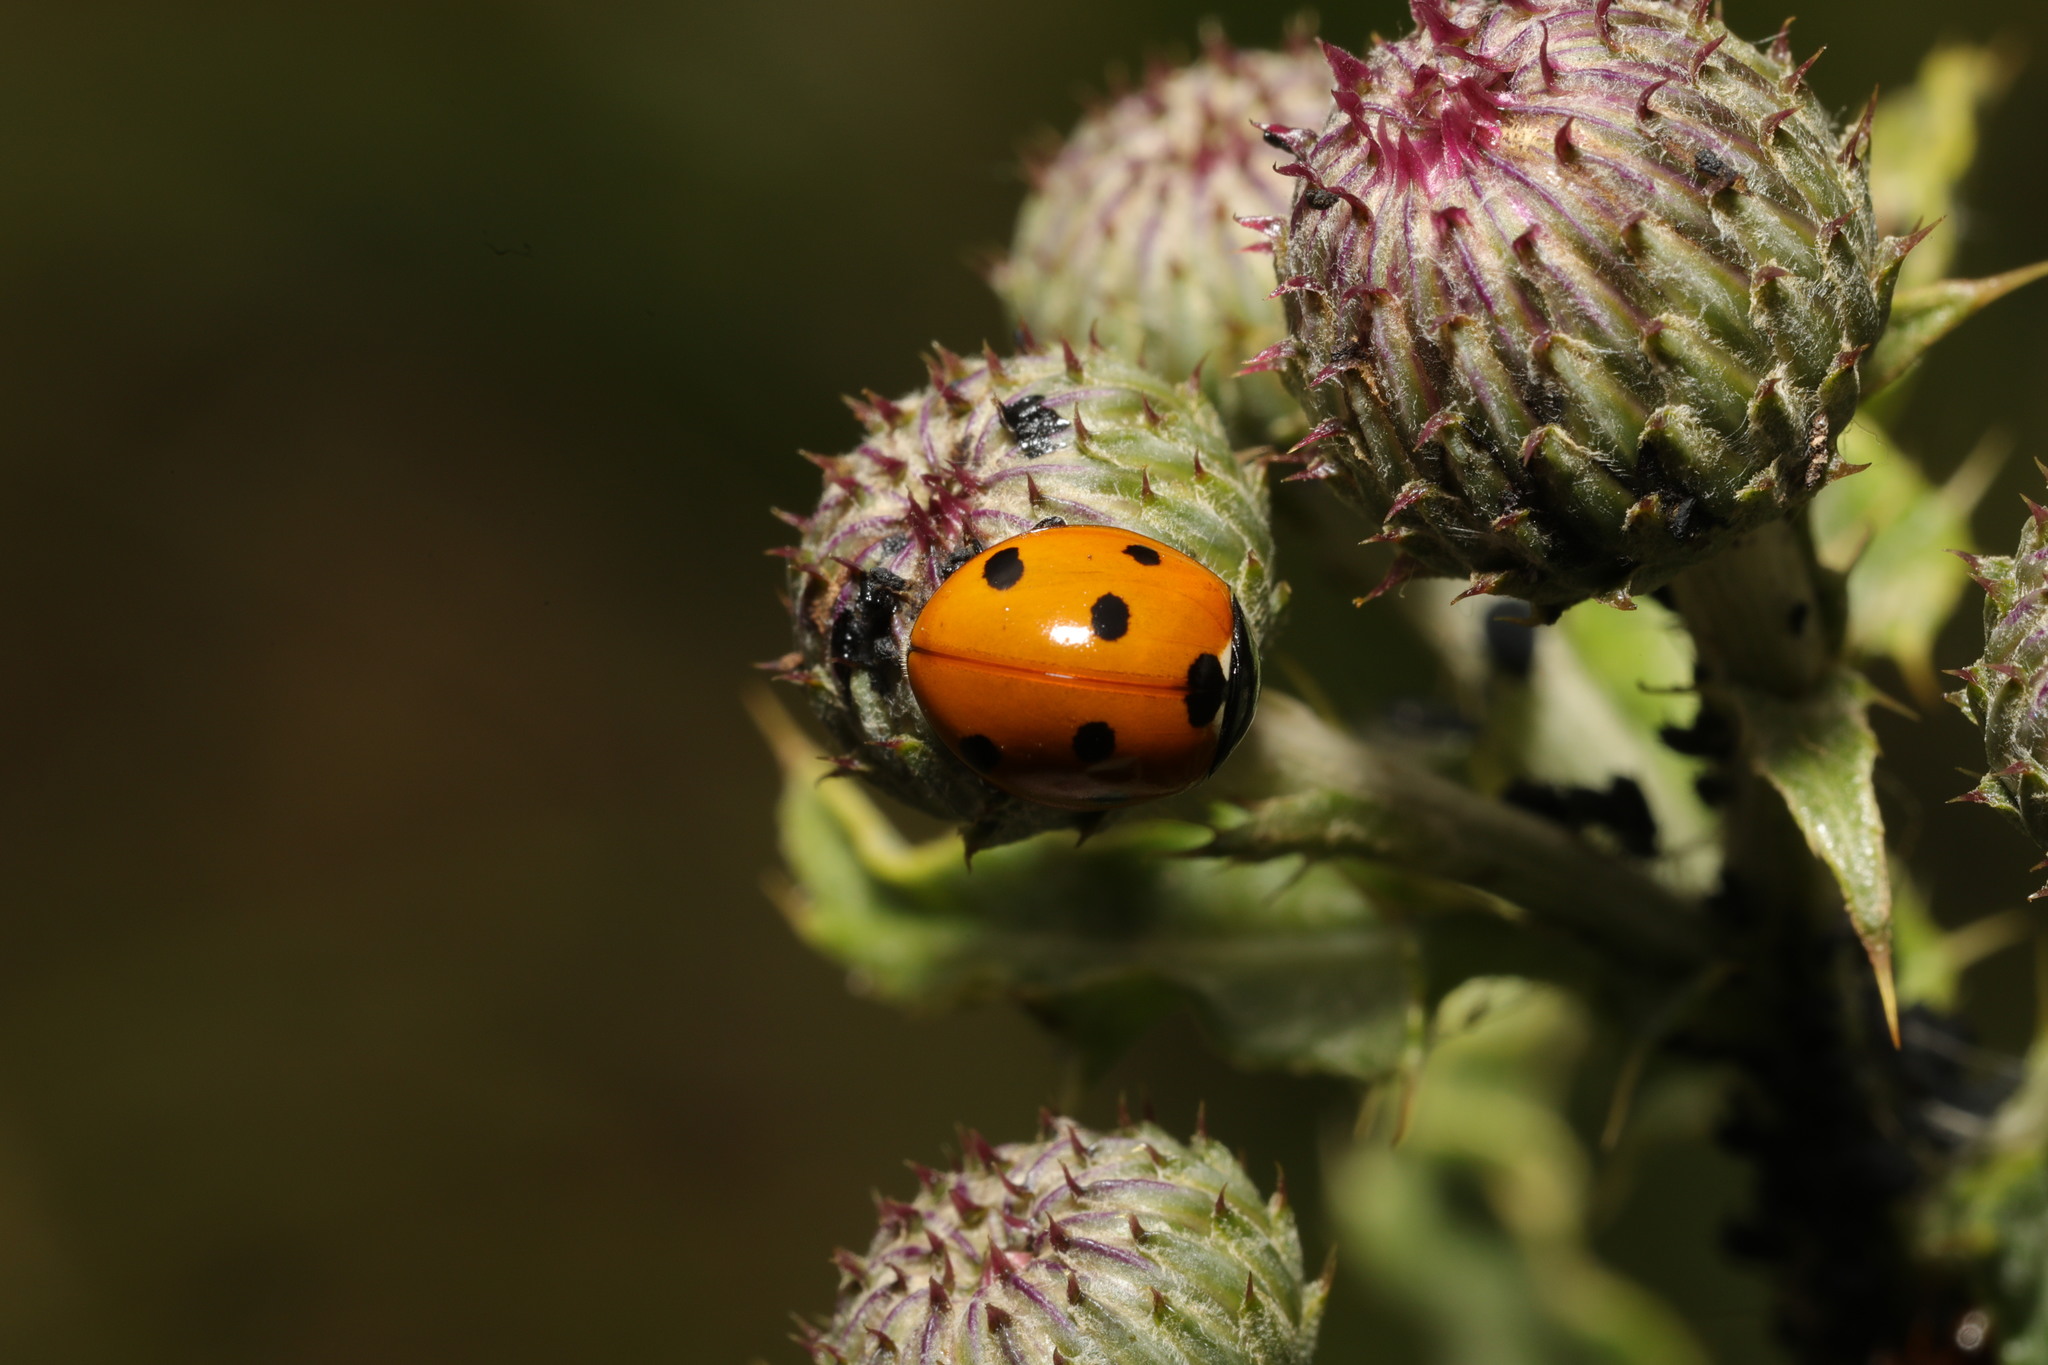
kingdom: Animalia
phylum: Arthropoda
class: Insecta
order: Coleoptera
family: Coccinellidae
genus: Coccinella
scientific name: Coccinella septempunctata
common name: Sevenspotted lady beetle
